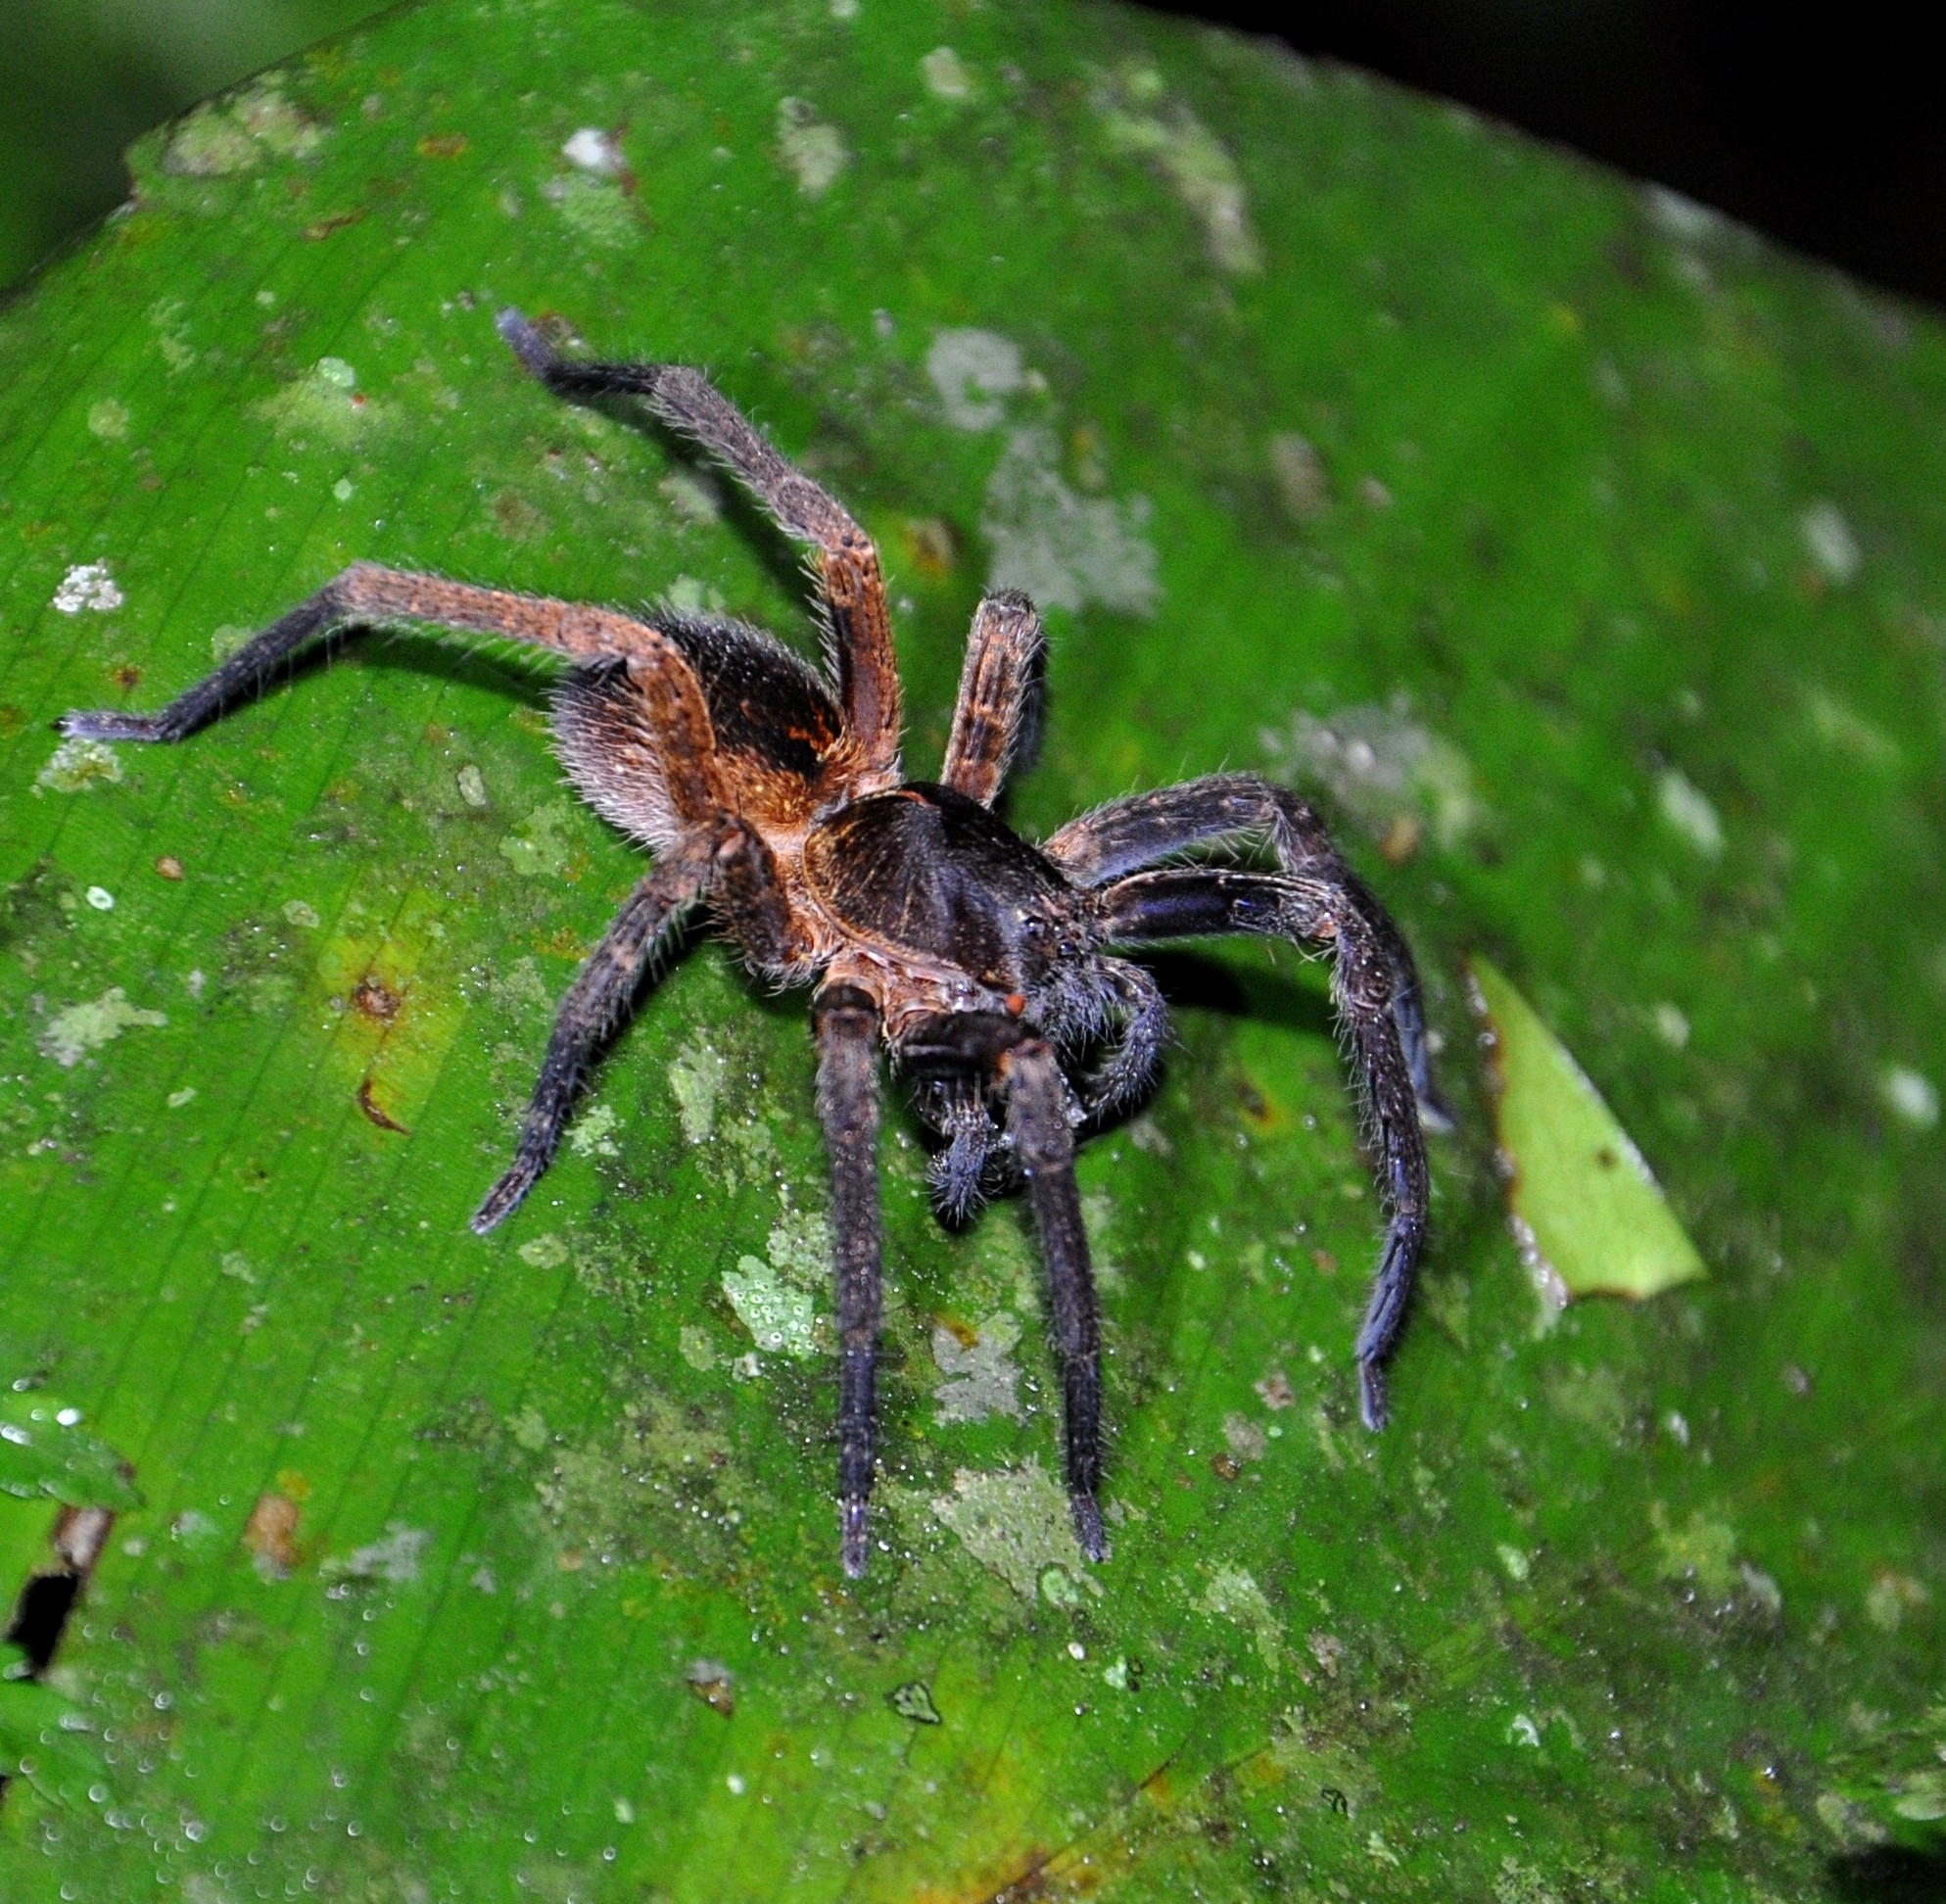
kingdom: Animalia
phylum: Arthropoda
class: Arachnida
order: Araneae
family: Ctenidae
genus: Ctenus
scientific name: Ctenus medius
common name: Wandering spiders
